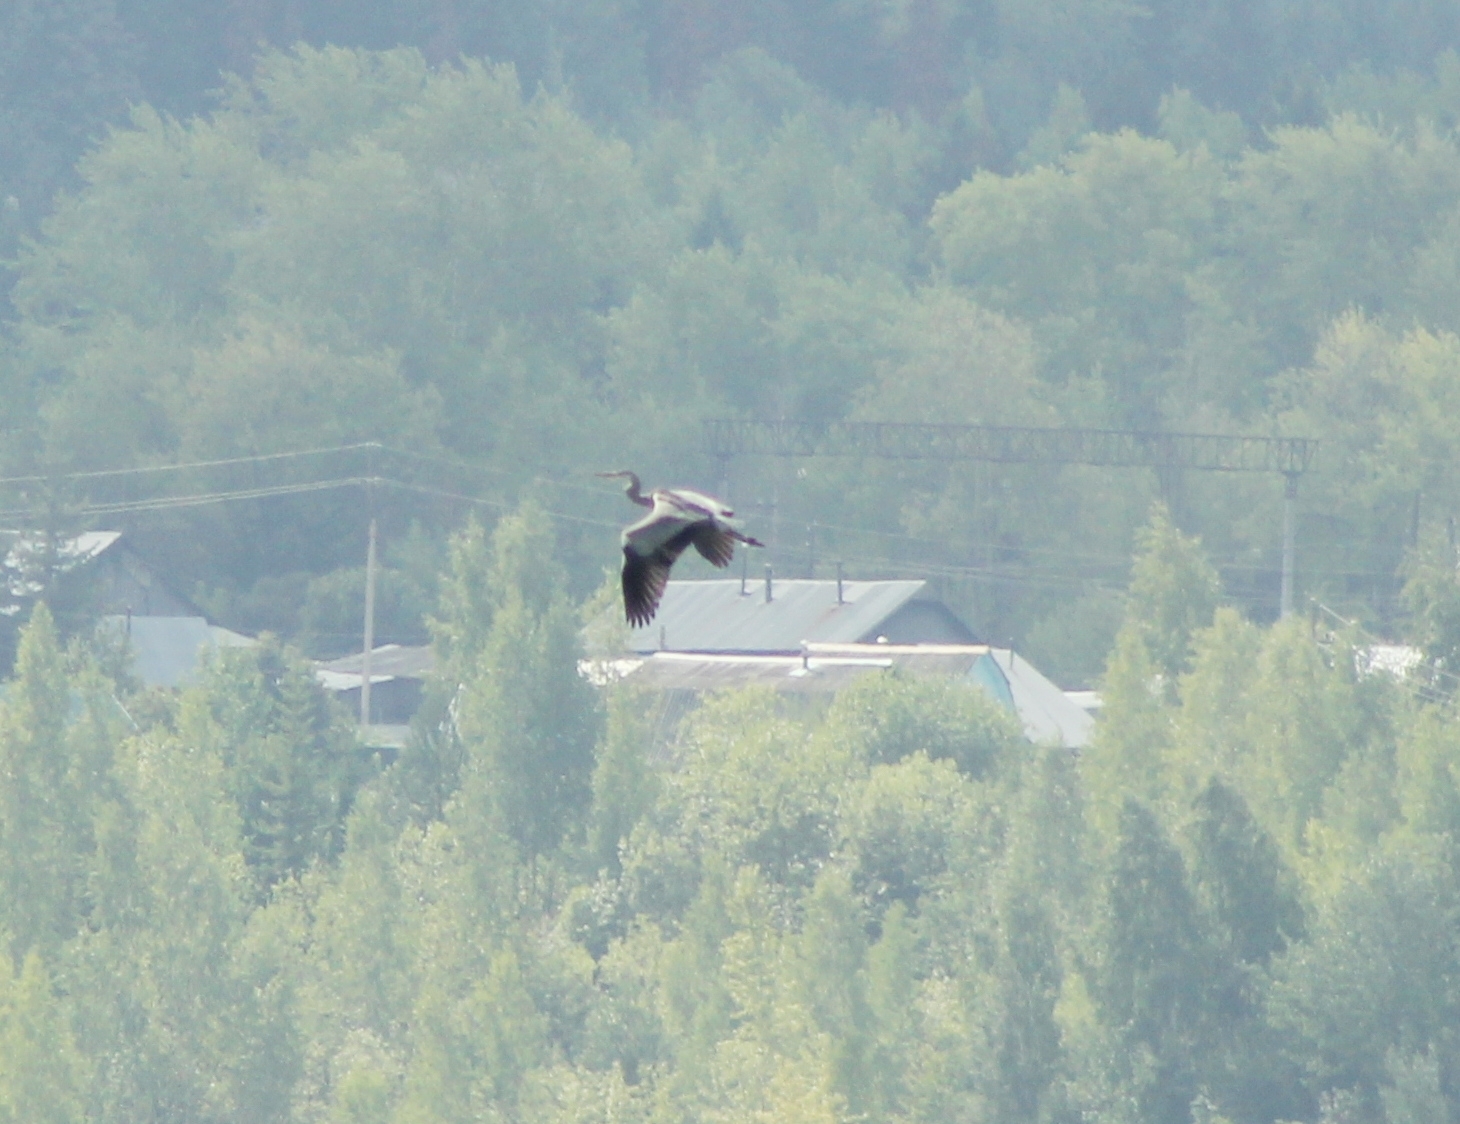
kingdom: Animalia
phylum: Chordata
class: Aves
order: Pelecaniformes
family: Ardeidae
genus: Ardea
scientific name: Ardea cinerea
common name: Grey heron
